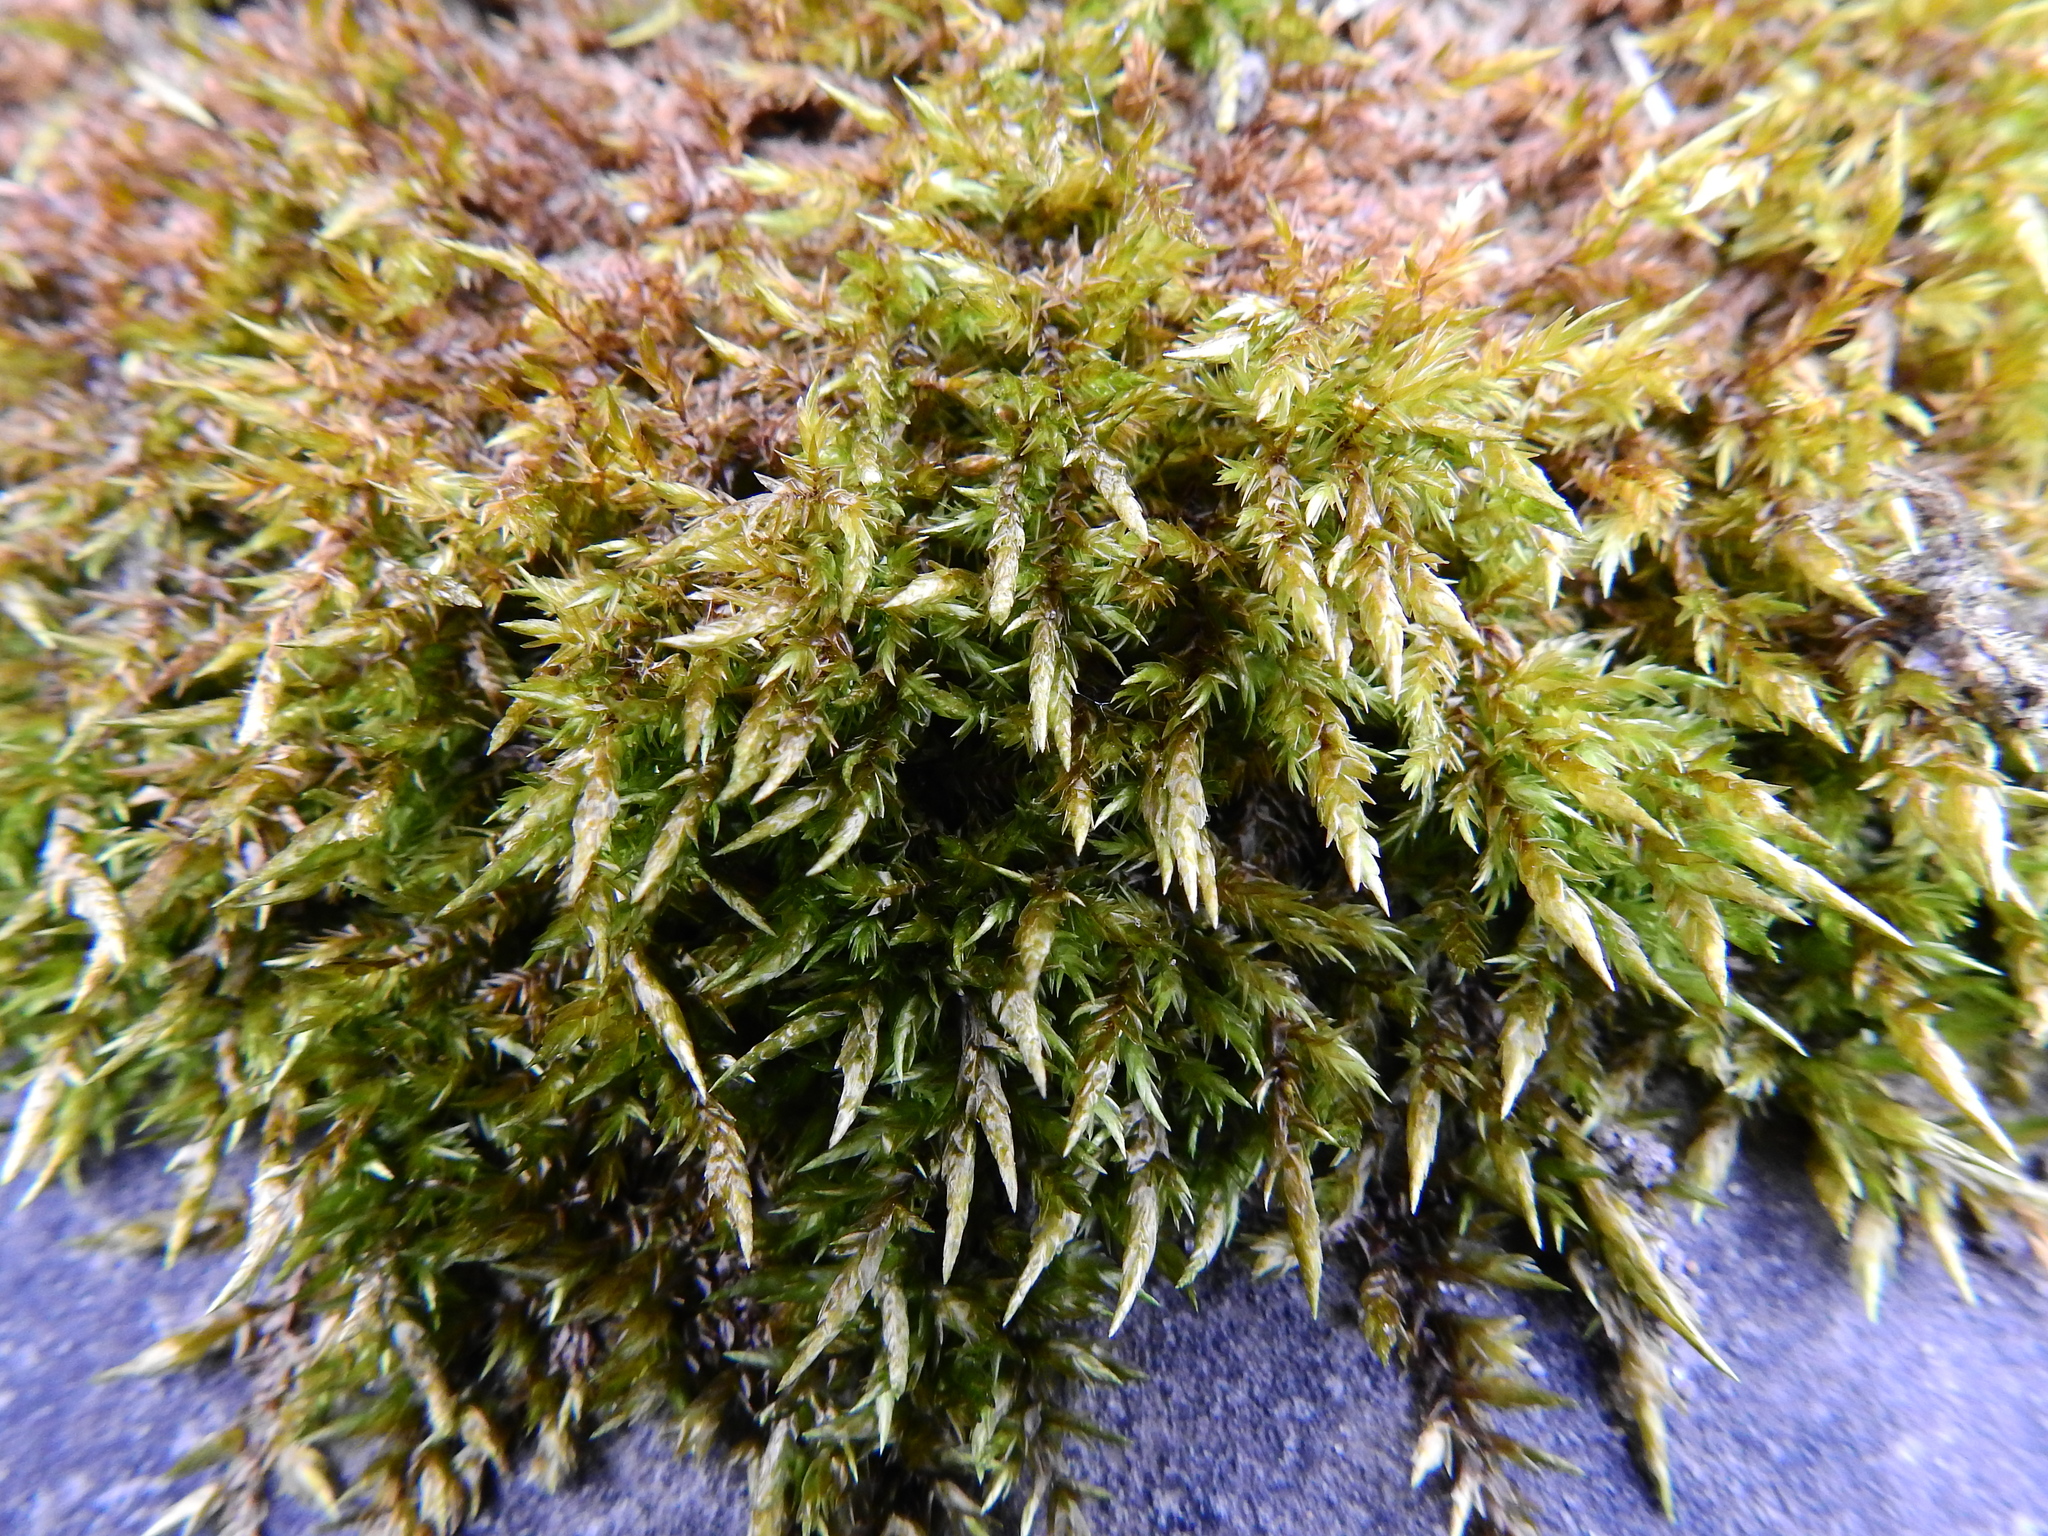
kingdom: Plantae
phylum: Bryophyta
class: Bryopsida
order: Hypnales
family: Pylaisiaceae
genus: Calliergonella
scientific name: Calliergonella cuspidata
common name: Common large wetland moss
